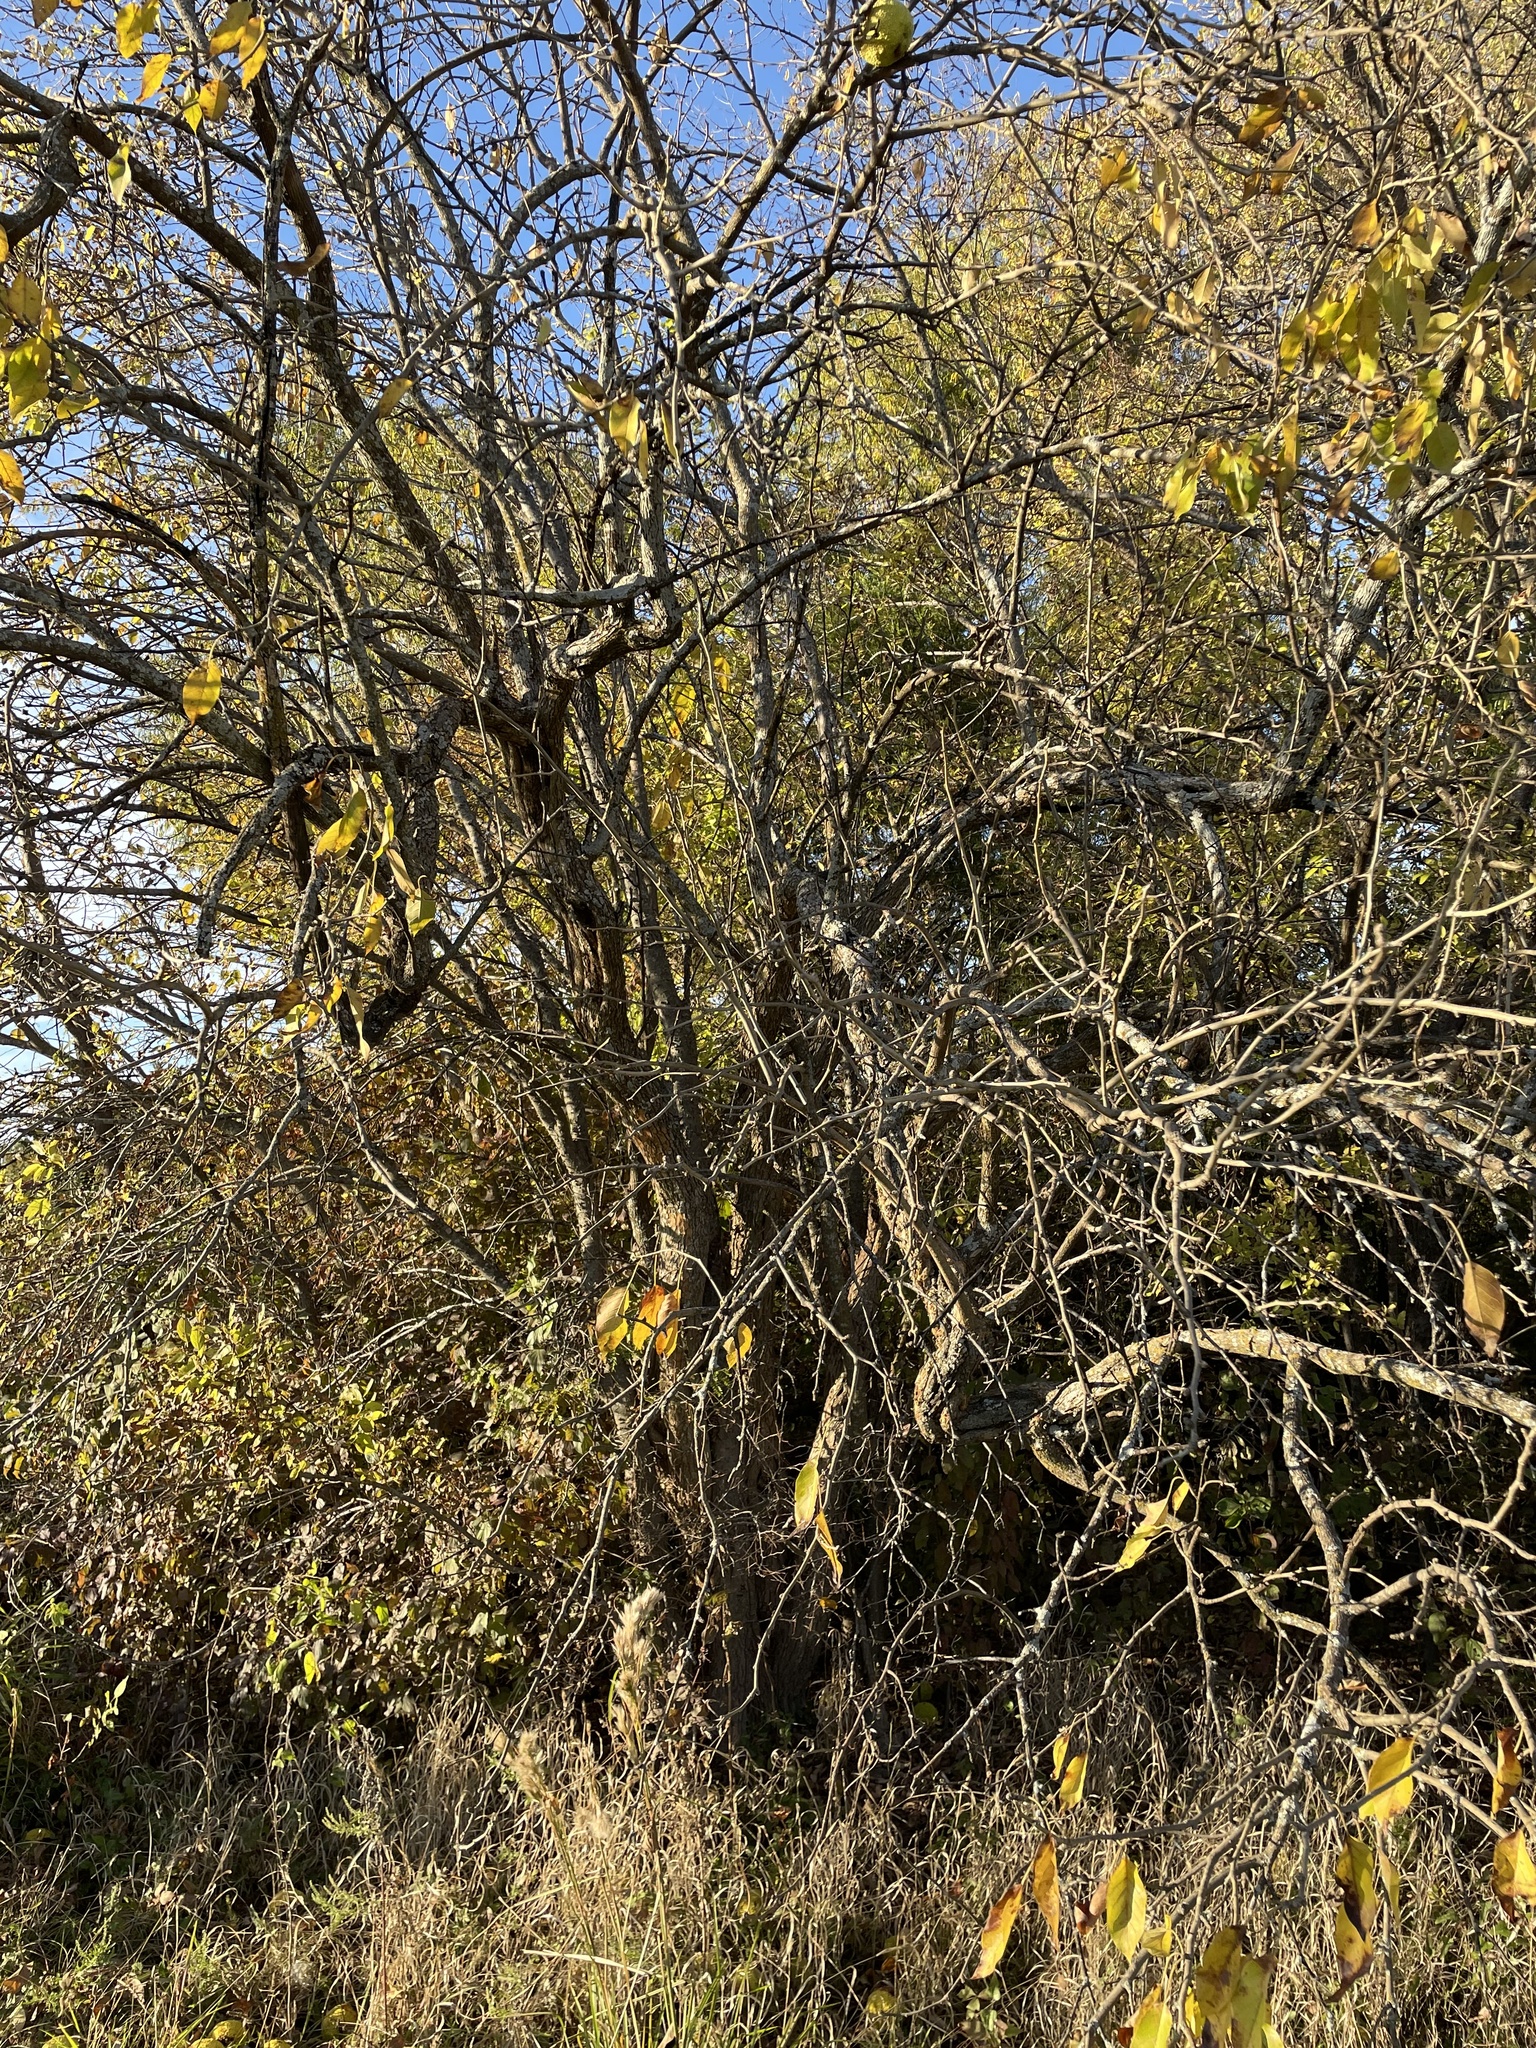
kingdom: Plantae
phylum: Tracheophyta
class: Magnoliopsida
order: Rosales
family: Moraceae
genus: Maclura
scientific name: Maclura pomifera
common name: Osage-orange
